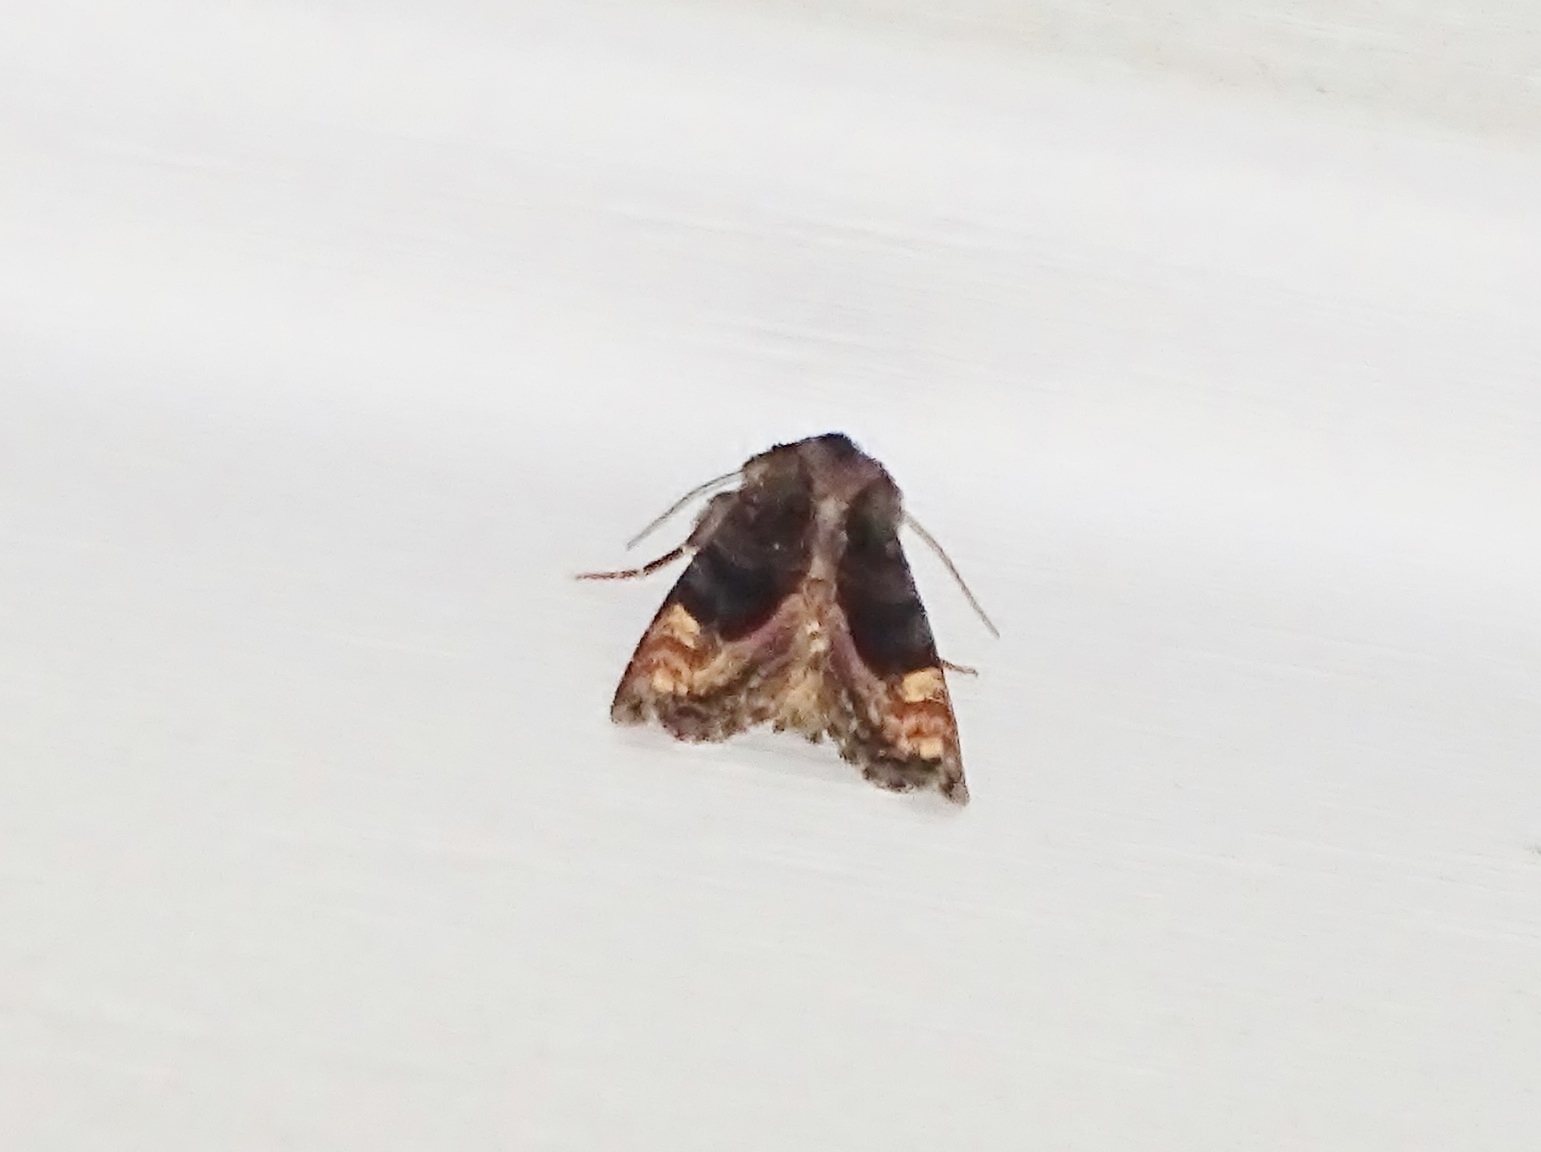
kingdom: Animalia
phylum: Arthropoda
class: Insecta
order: Lepidoptera
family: Noctuidae
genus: Euplexia
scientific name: Euplexia benesimilis
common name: American angle shades
